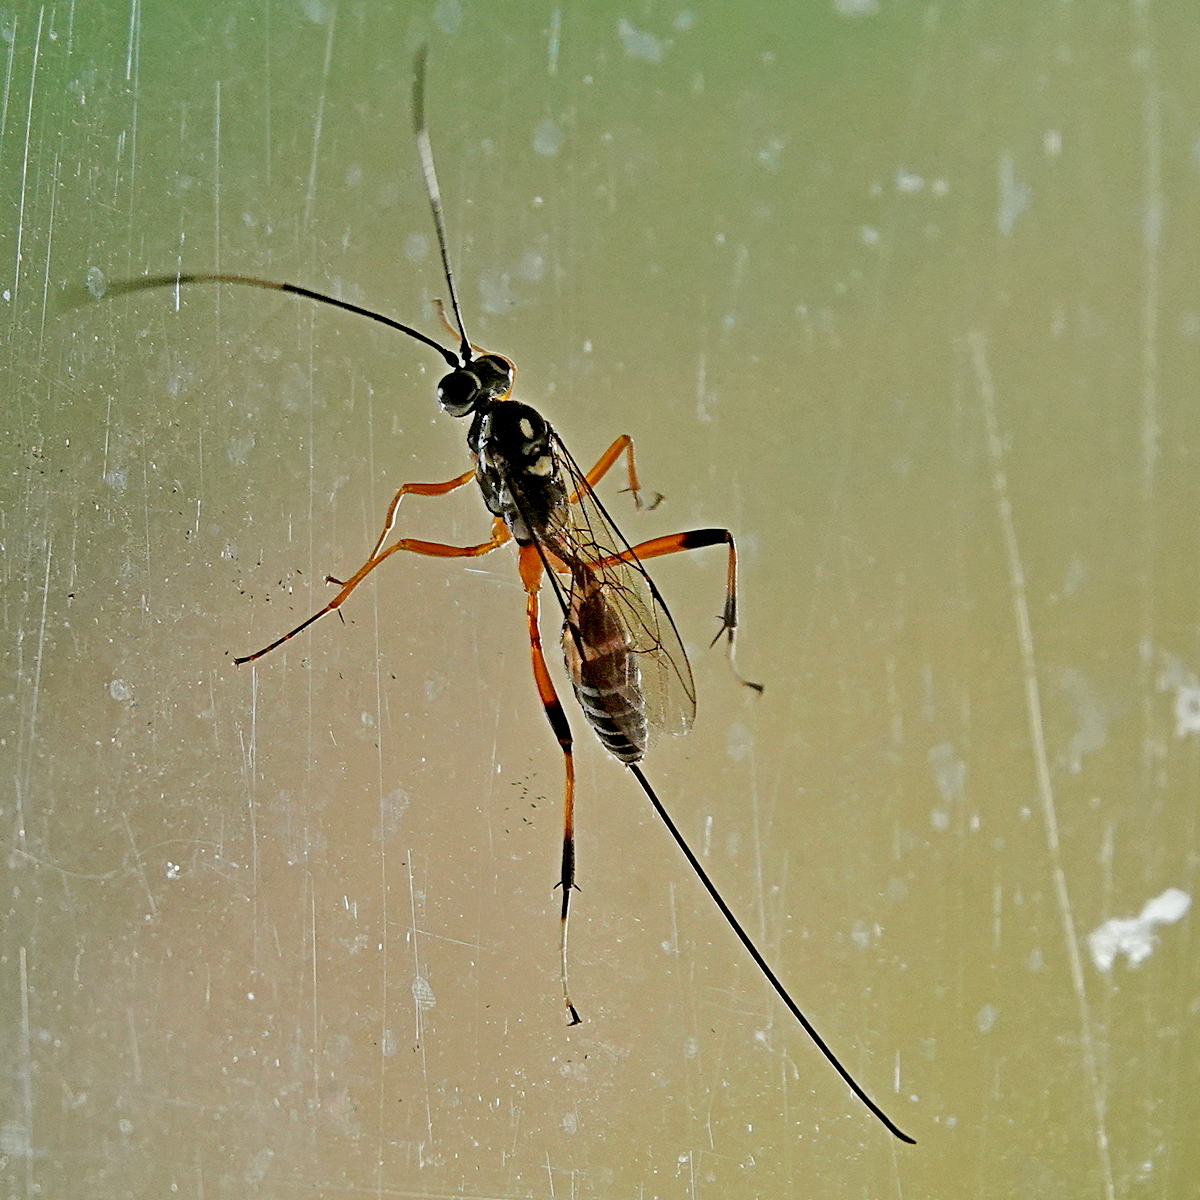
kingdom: Animalia
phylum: Arthropoda
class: Insecta
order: Hymenoptera
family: Ichneumonidae
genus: Stenarella
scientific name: Stenarella victoriae
